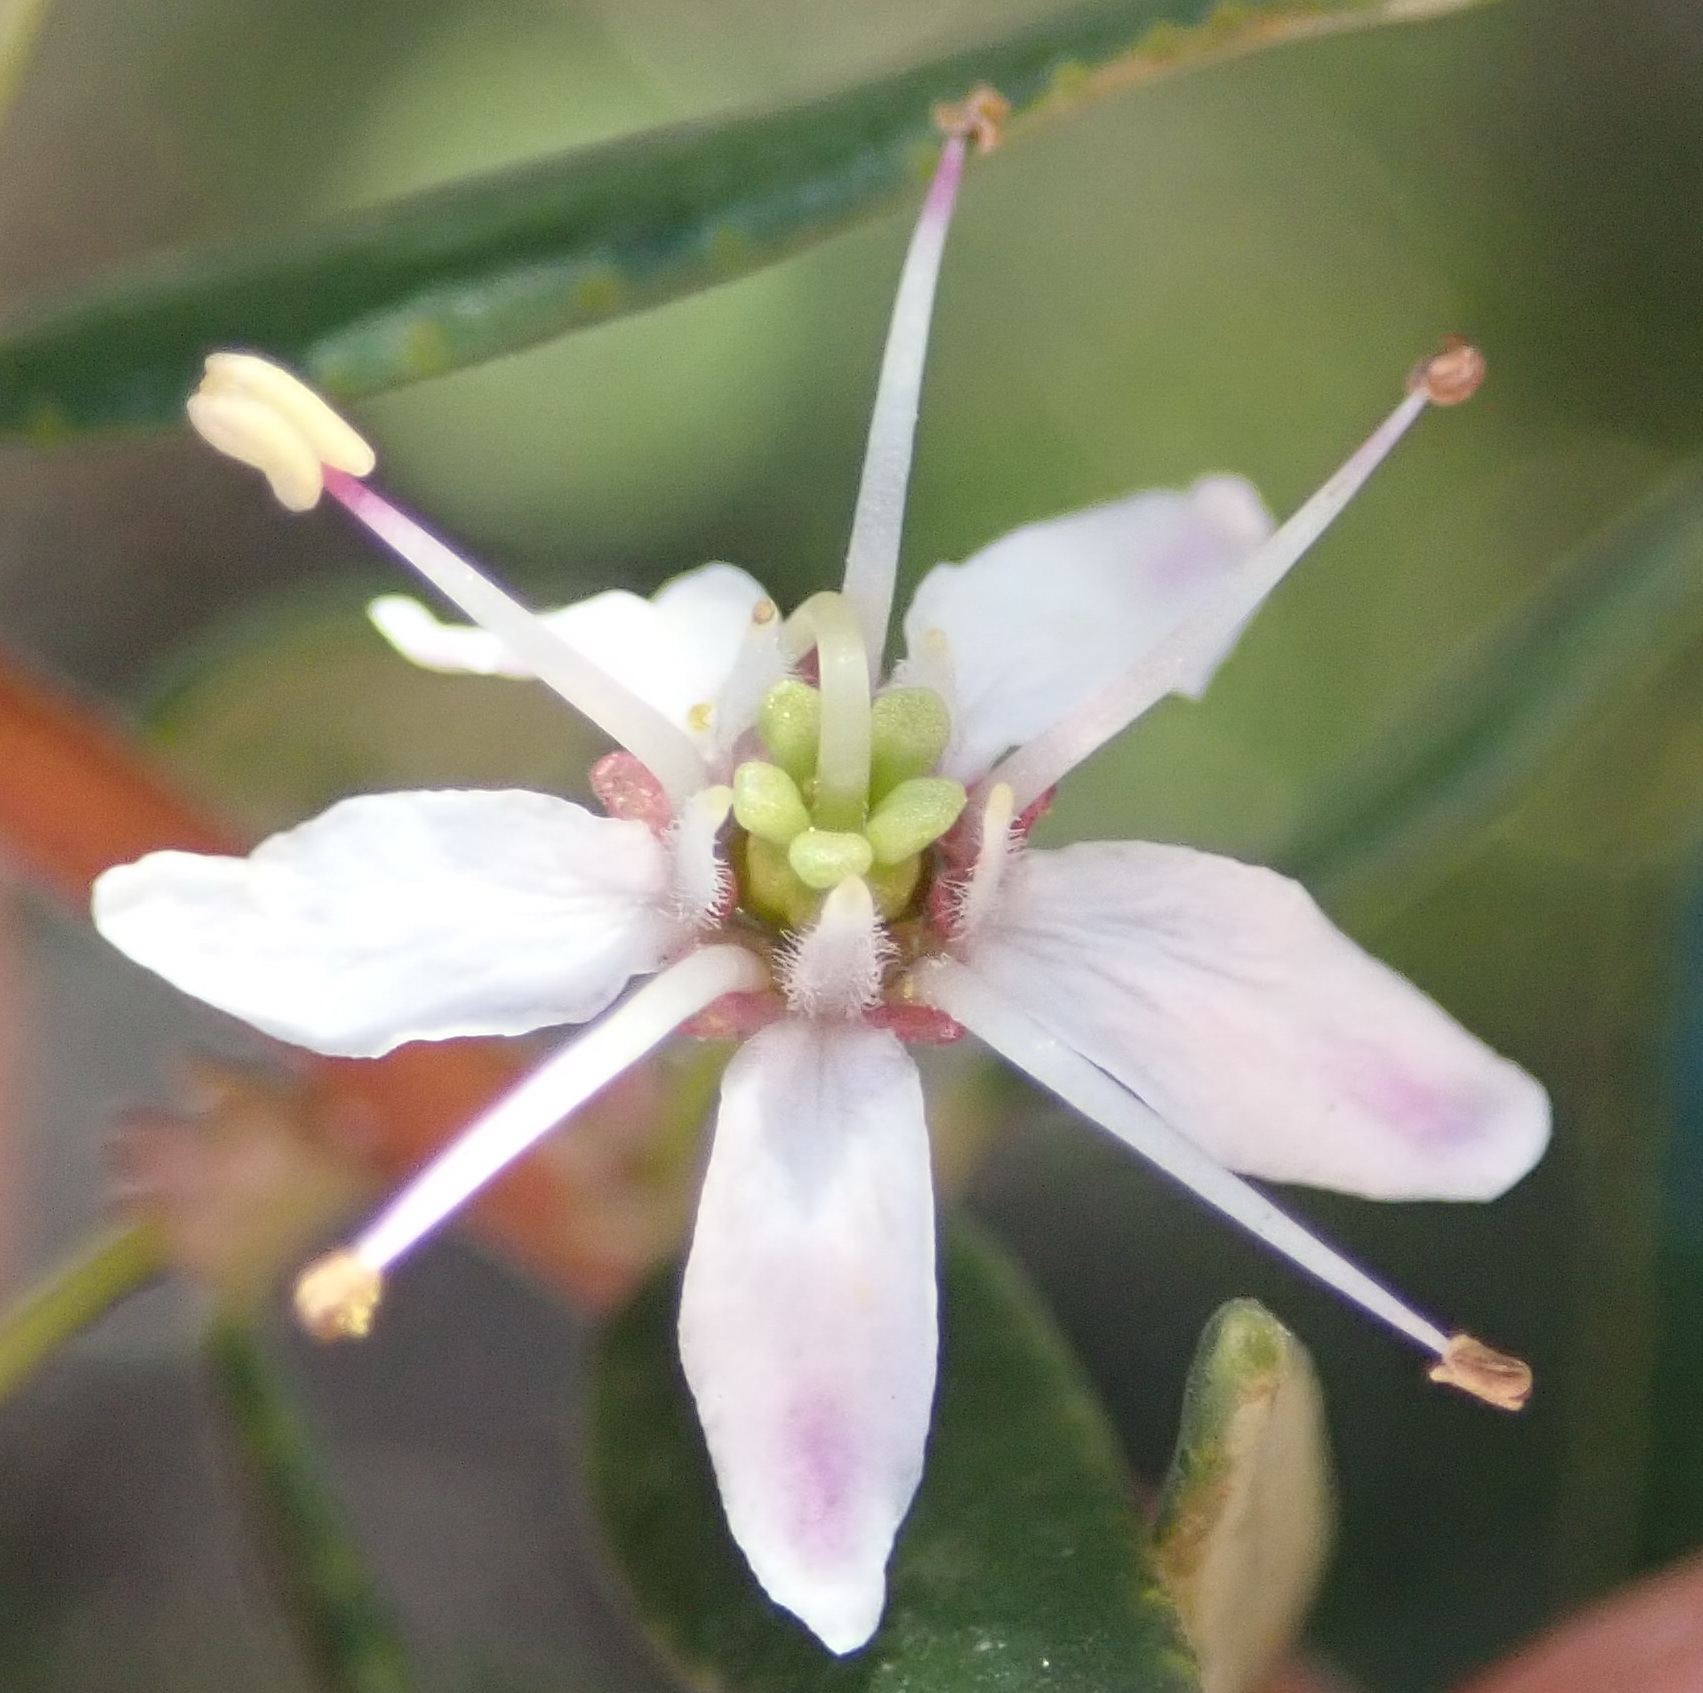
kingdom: Plantae
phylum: Tracheophyta
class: Magnoliopsida
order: Sapindales
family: Rutaceae
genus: Agathosma
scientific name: Agathosma ovata
